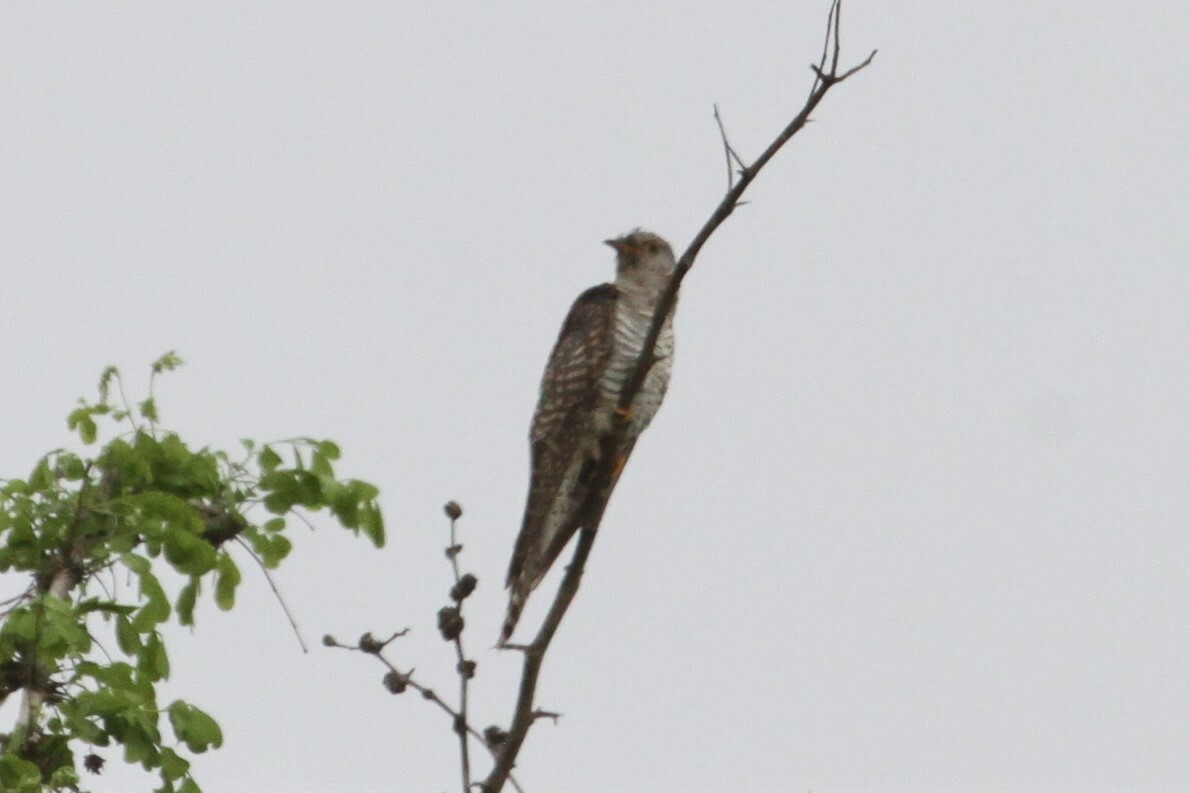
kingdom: Animalia
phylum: Chordata
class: Aves
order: Cuculiformes
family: Cuculidae
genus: Cuculus
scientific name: Cuculus canorus
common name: Common cuckoo
